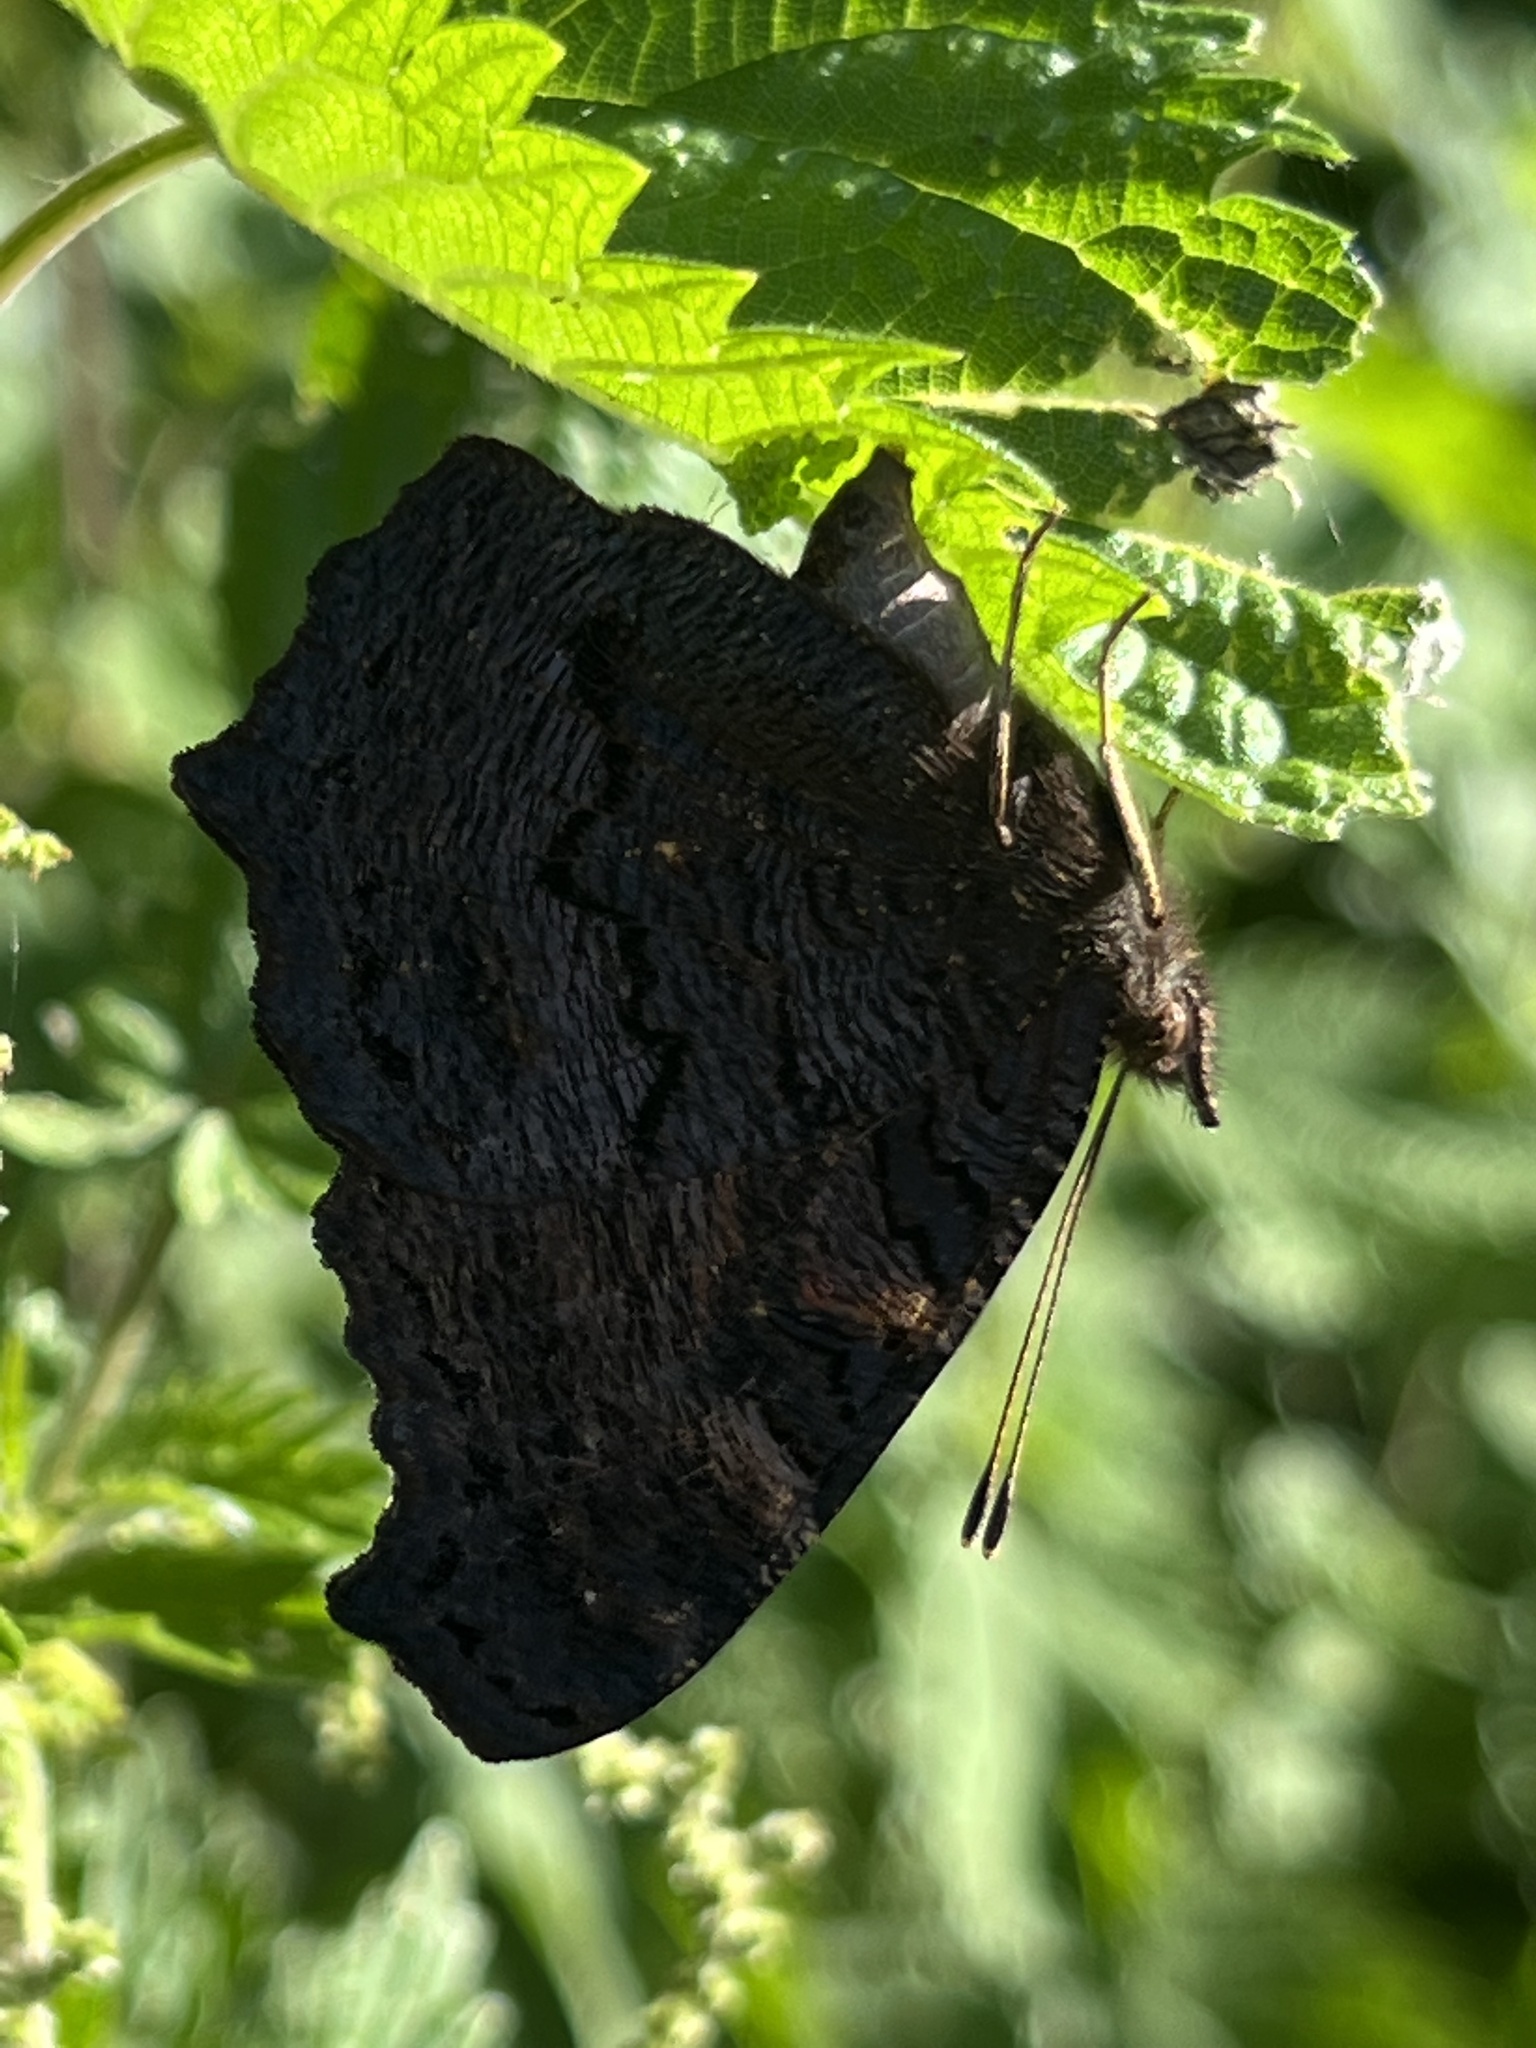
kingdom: Animalia
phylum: Arthropoda
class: Insecta
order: Lepidoptera
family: Nymphalidae
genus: Aglais
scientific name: Aglais io
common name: Peacock
